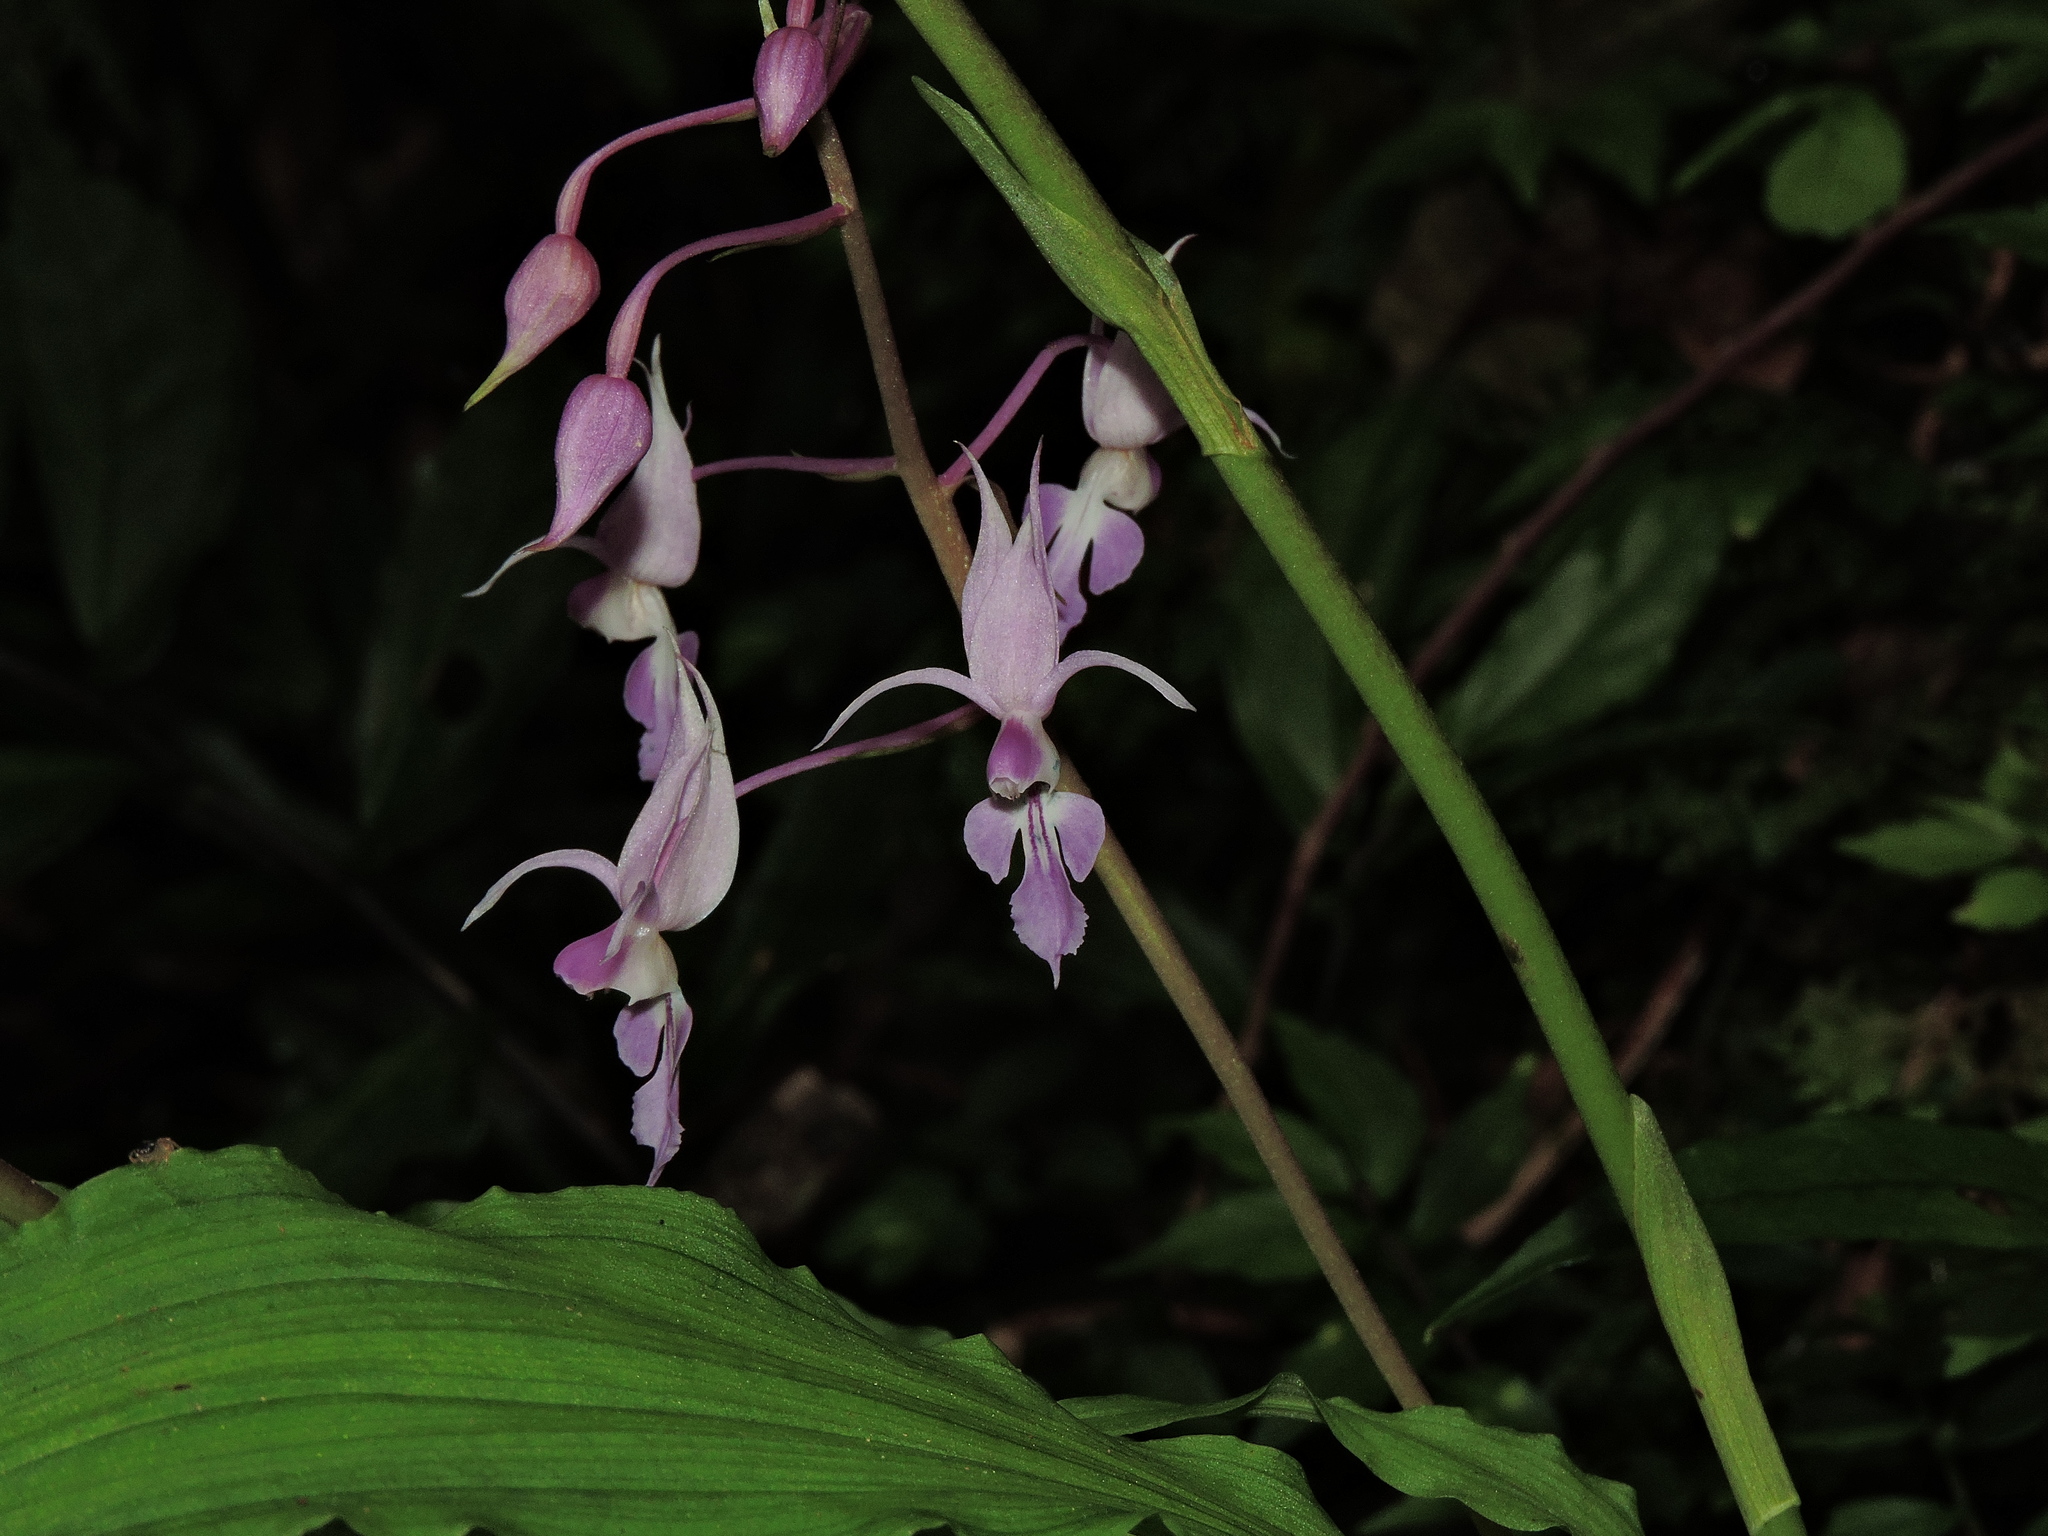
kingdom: Plantae
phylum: Tracheophyta
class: Liliopsida
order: Asparagales
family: Orchidaceae
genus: Calanthe
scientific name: Calanthe puberula
